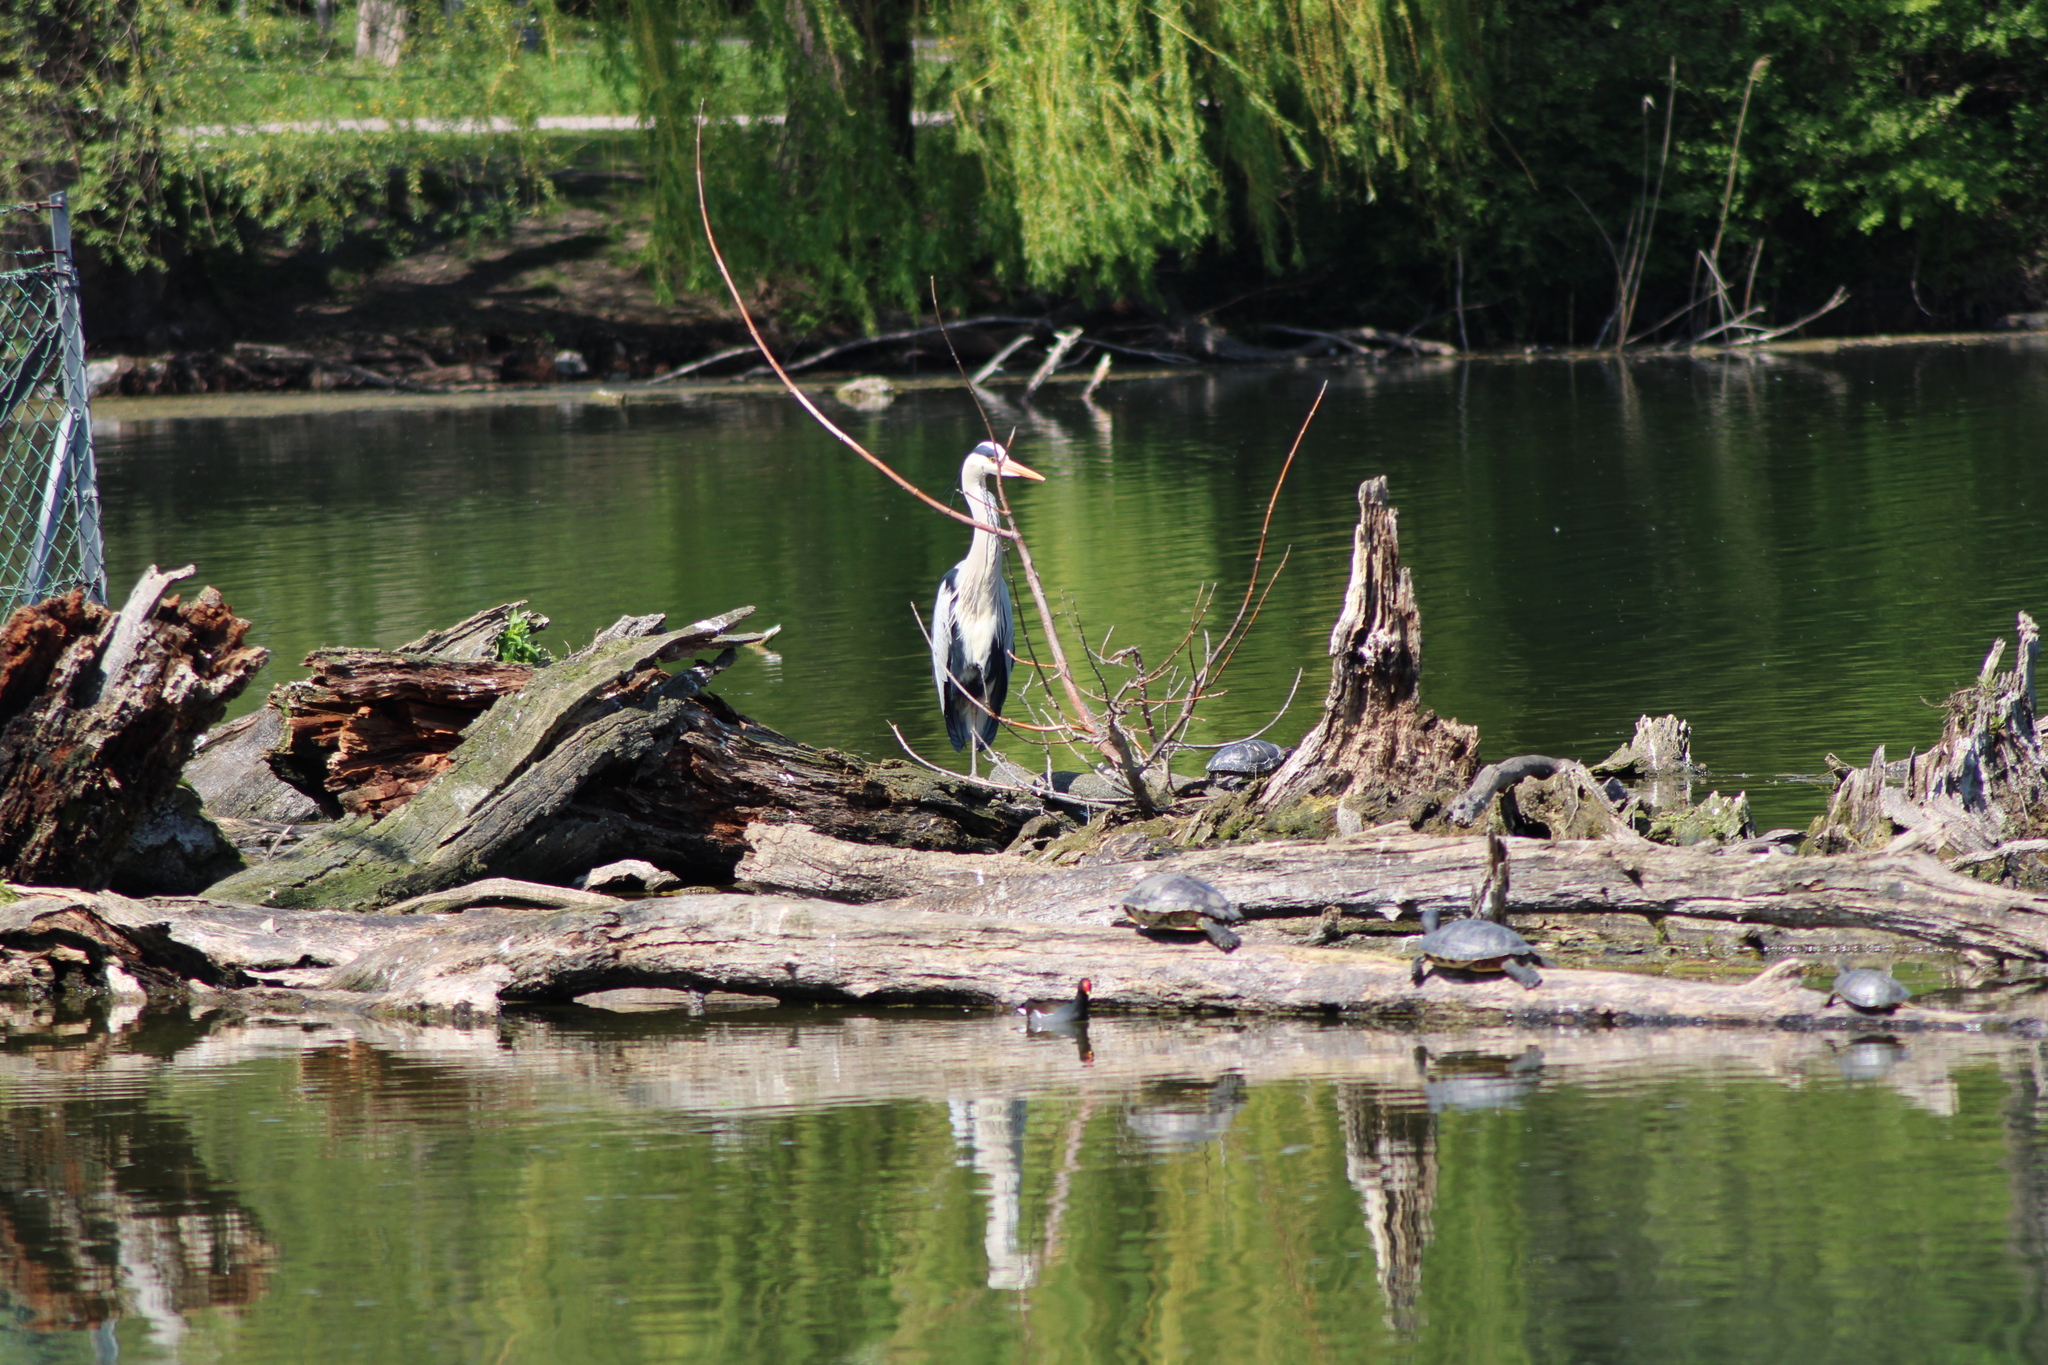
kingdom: Animalia
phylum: Chordata
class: Aves
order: Pelecaniformes
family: Ardeidae
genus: Ardea
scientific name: Ardea cinerea
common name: Grey heron
